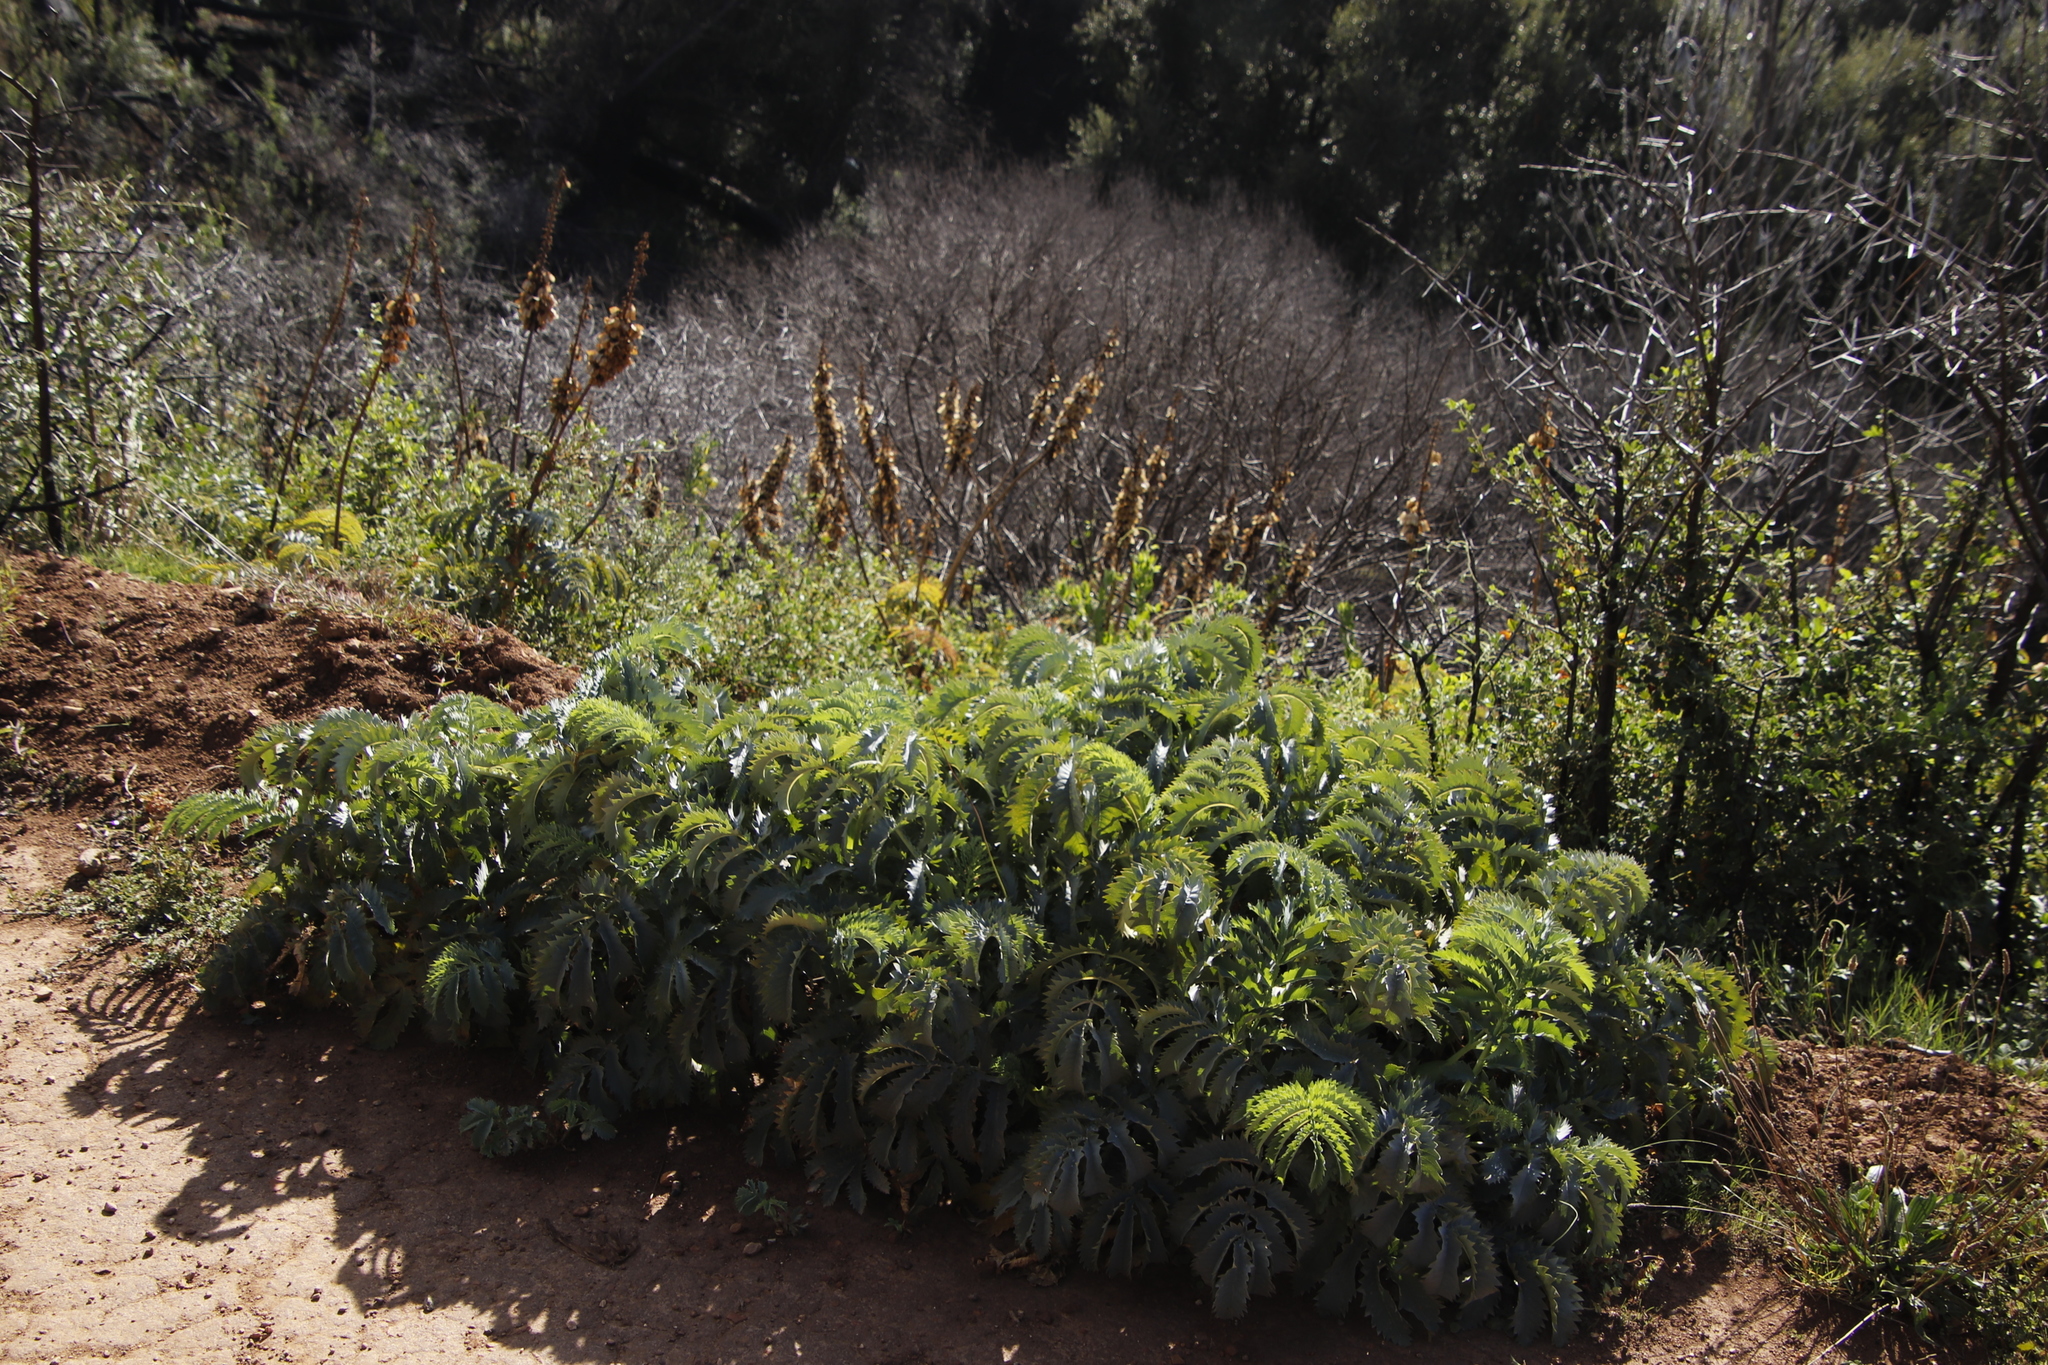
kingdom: Plantae
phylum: Tracheophyta
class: Magnoliopsida
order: Geraniales
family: Melianthaceae
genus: Melianthus
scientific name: Melianthus major
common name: Honey-flower
